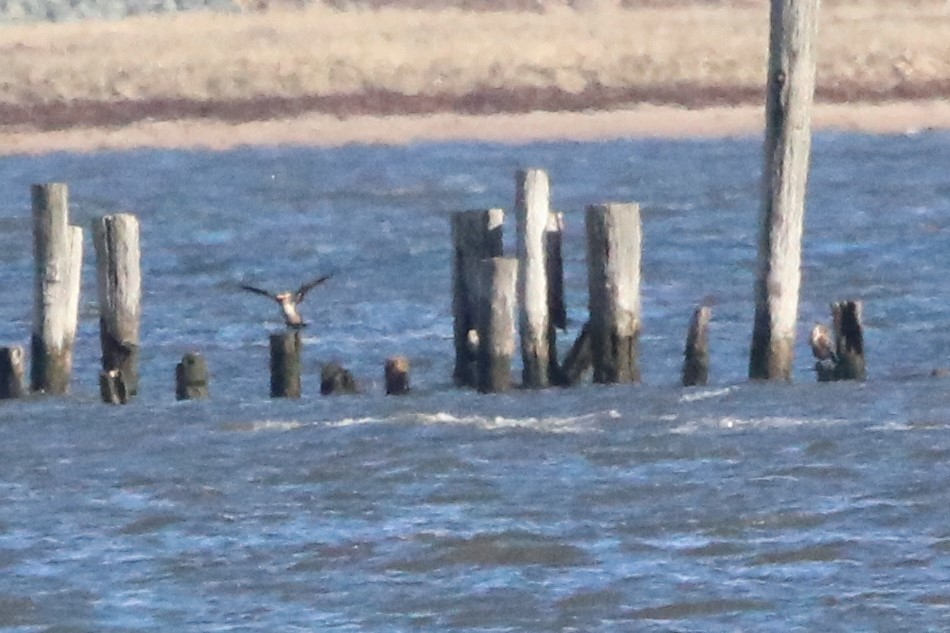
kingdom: Animalia
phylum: Chordata
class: Aves
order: Suliformes
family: Phalacrocoracidae
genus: Phalacrocorax
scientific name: Phalacrocorax auritus
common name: Double-crested cormorant
